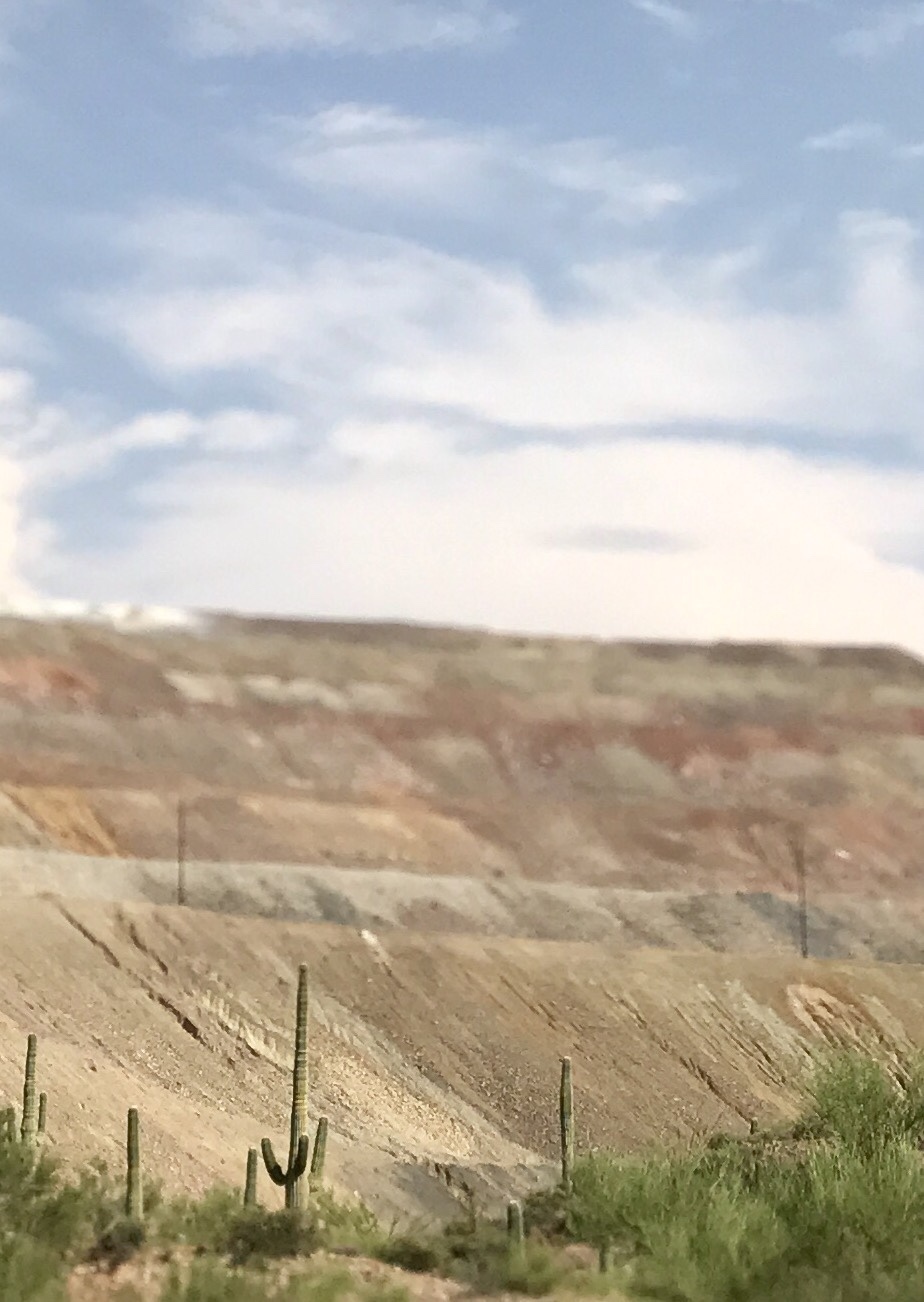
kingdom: Plantae
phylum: Tracheophyta
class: Magnoliopsida
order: Caryophyllales
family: Cactaceae
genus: Carnegiea
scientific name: Carnegiea gigantea
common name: Saguaro
